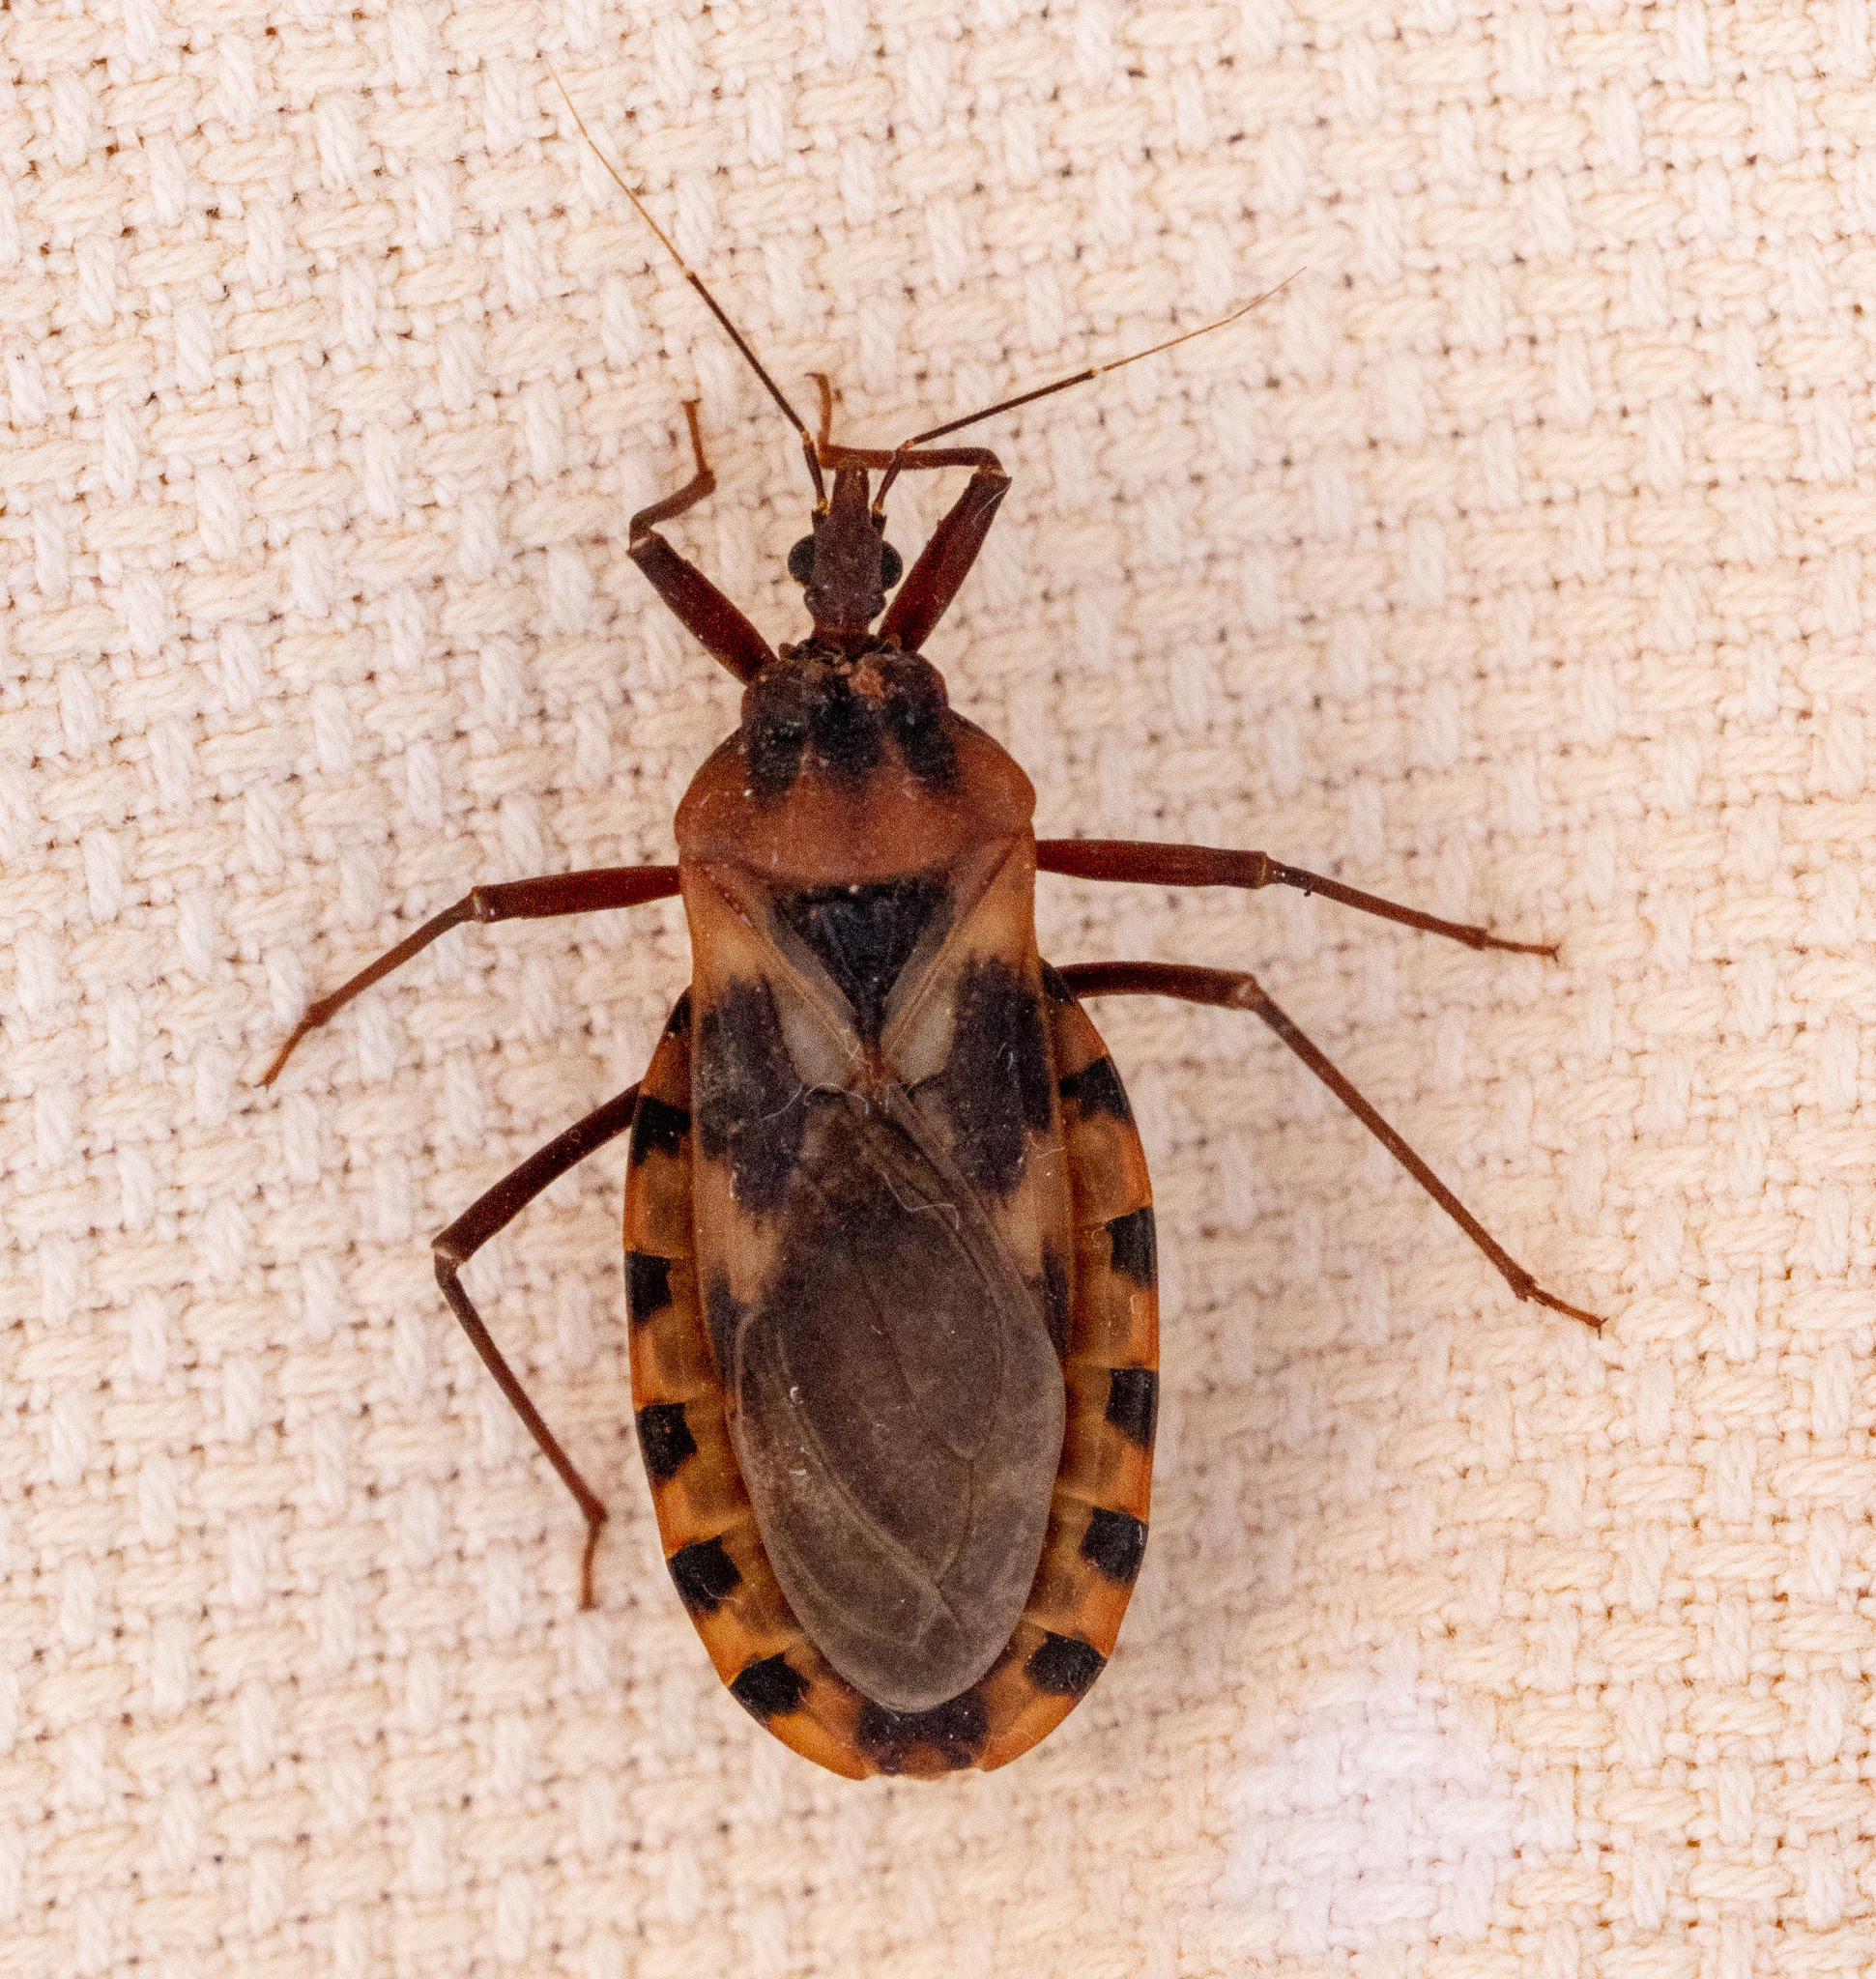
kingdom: Animalia
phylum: Arthropoda
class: Insecta
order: Hemiptera
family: Reduviidae
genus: Panstrongylus
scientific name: Panstrongylus lutzi
